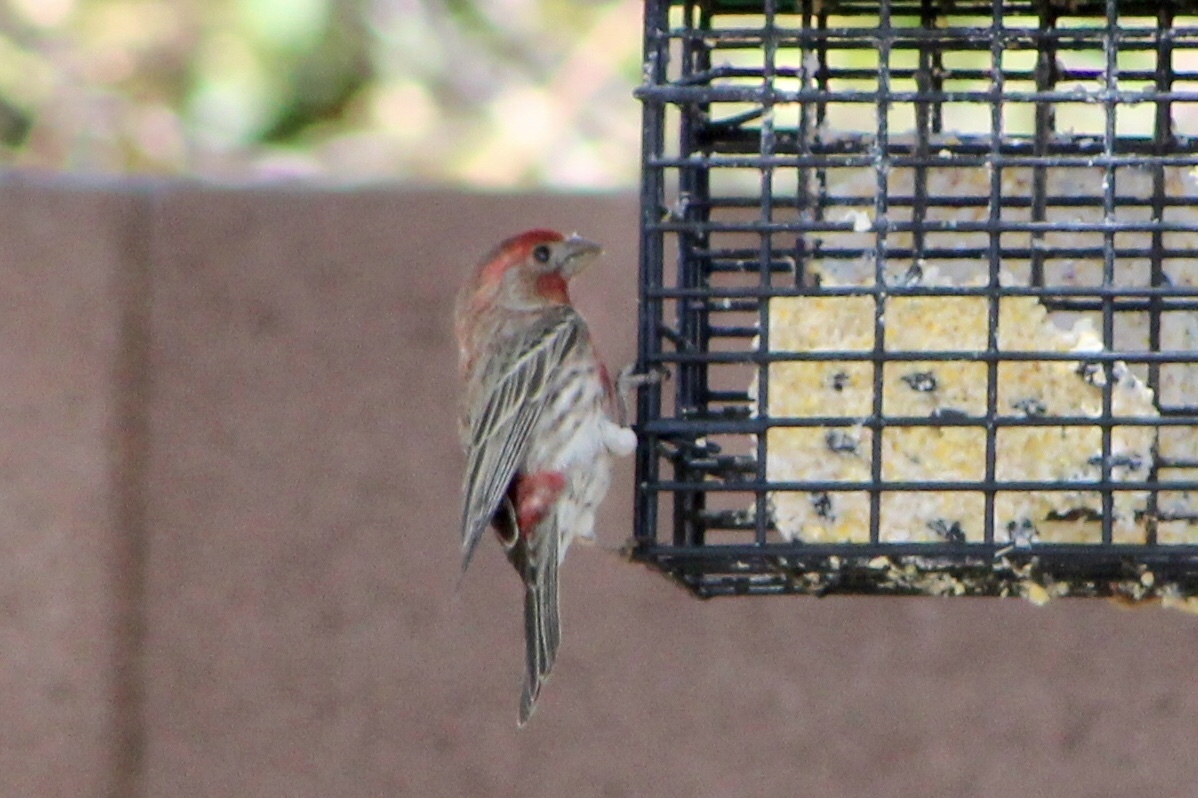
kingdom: Animalia
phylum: Chordata
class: Aves
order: Passeriformes
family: Fringillidae
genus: Haemorhous
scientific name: Haemorhous mexicanus
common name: House finch
